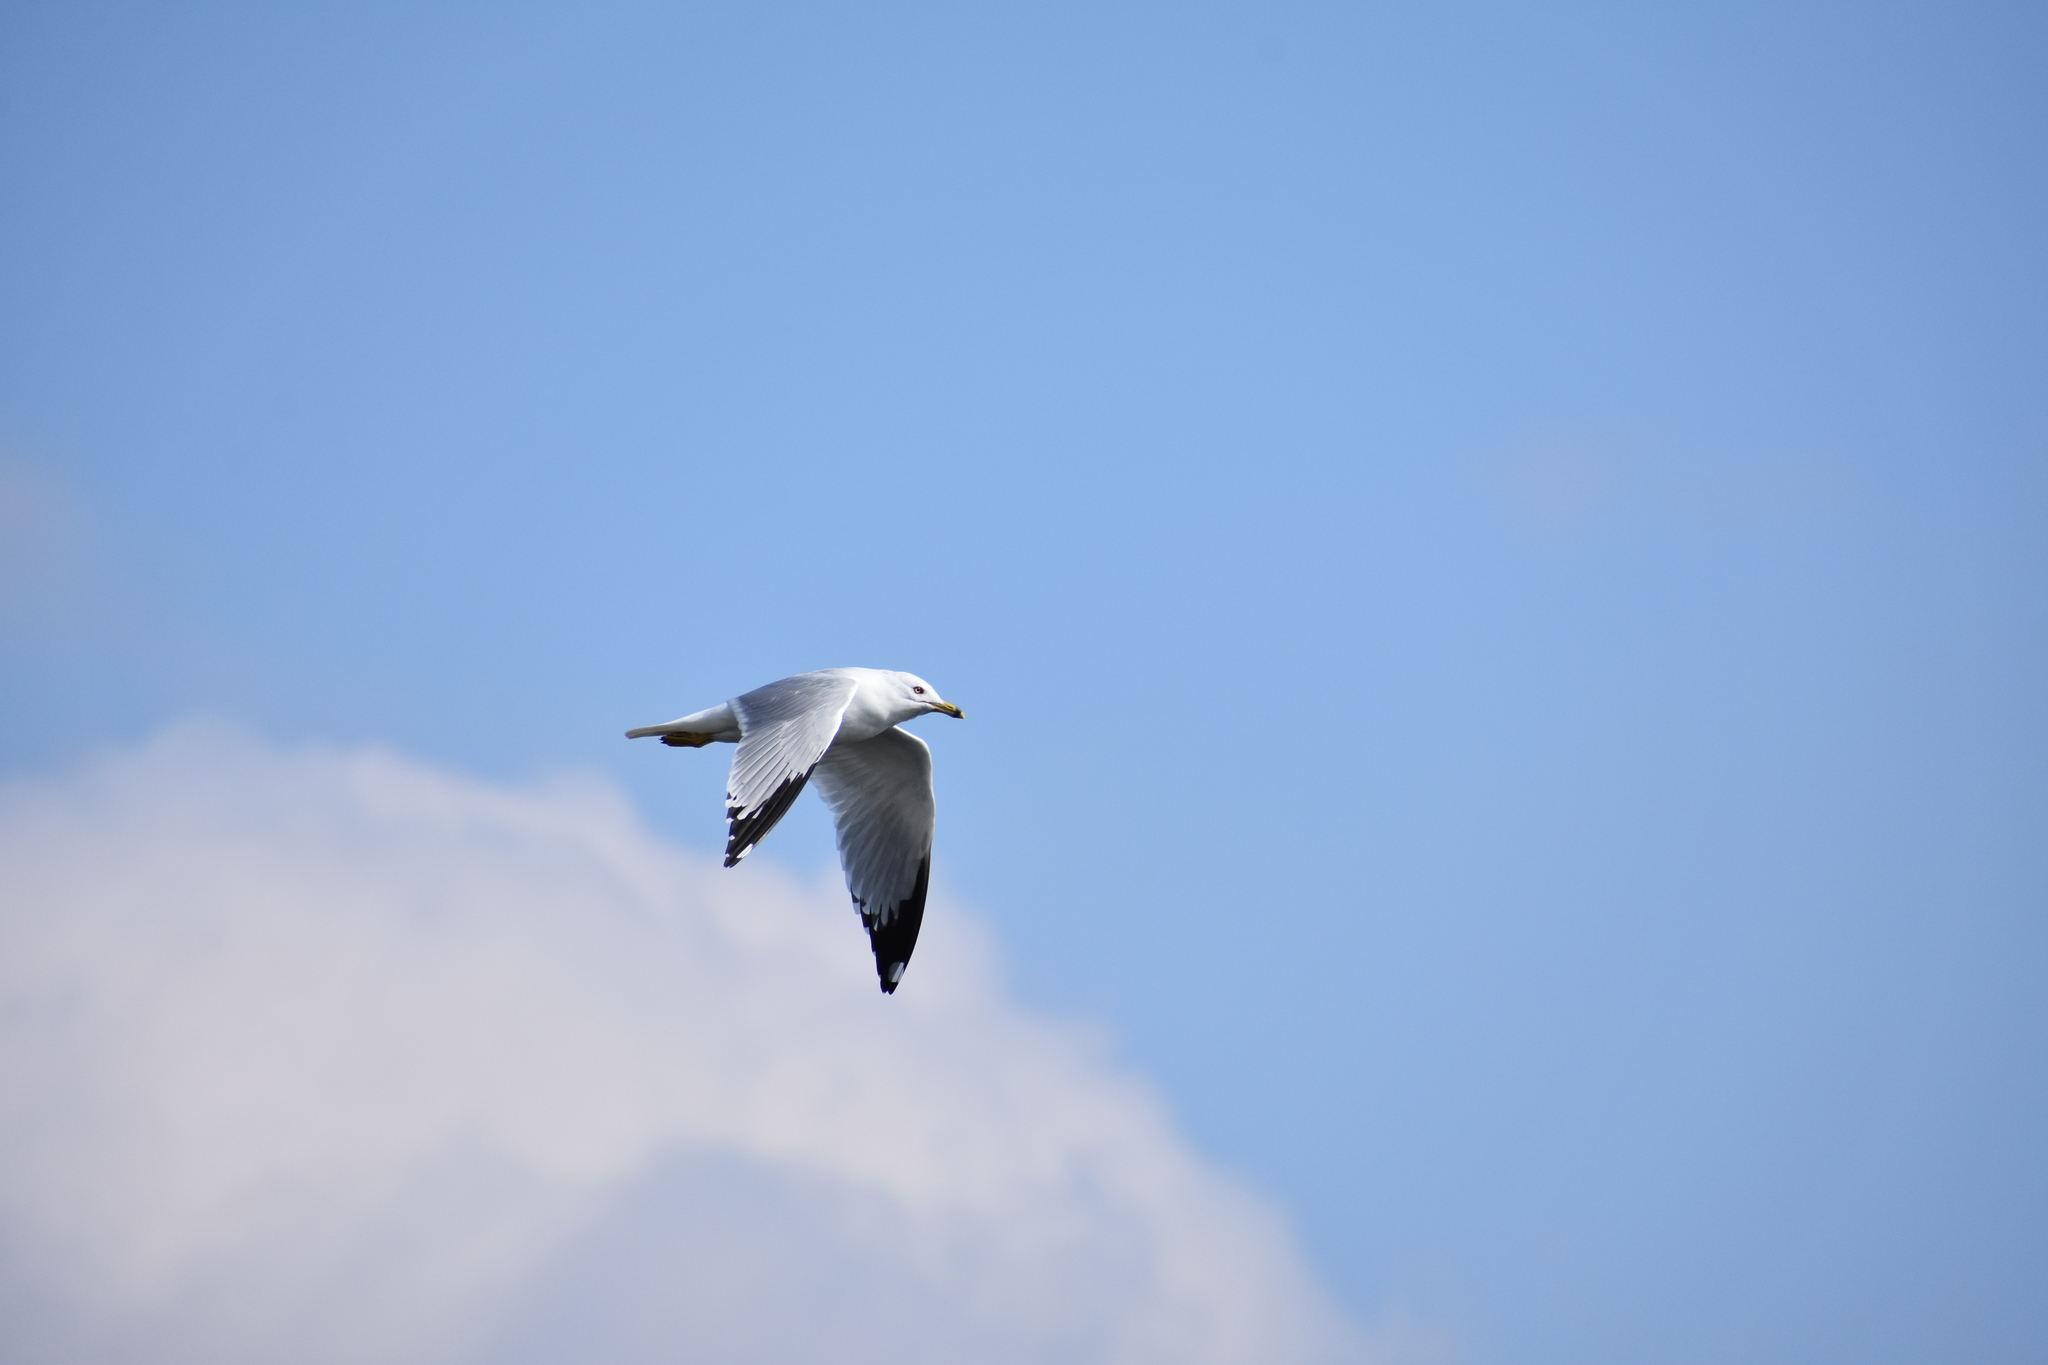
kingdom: Animalia
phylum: Chordata
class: Aves
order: Charadriiformes
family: Laridae
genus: Larus
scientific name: Larus delawarensis
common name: Ring-billed gull
